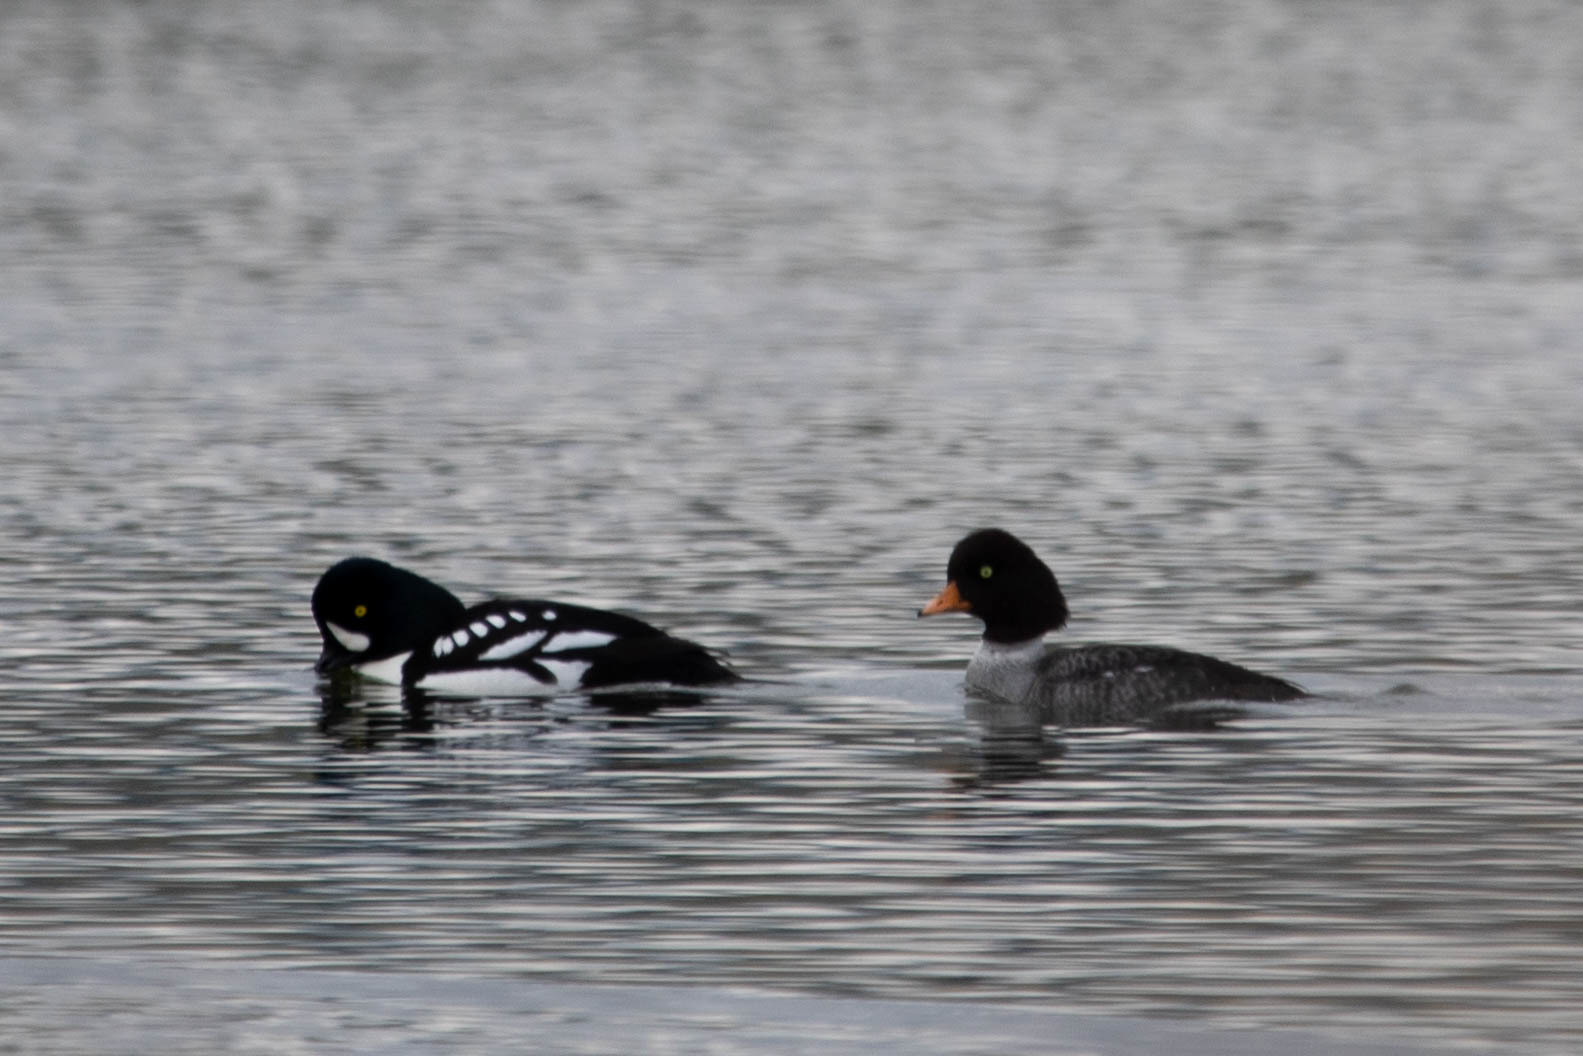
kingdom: Animalia
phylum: Chordata
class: Aves
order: Anseriformes
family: Anatidae
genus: Bucephala
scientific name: Bucephala islandica
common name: Barrow's goldeneye
